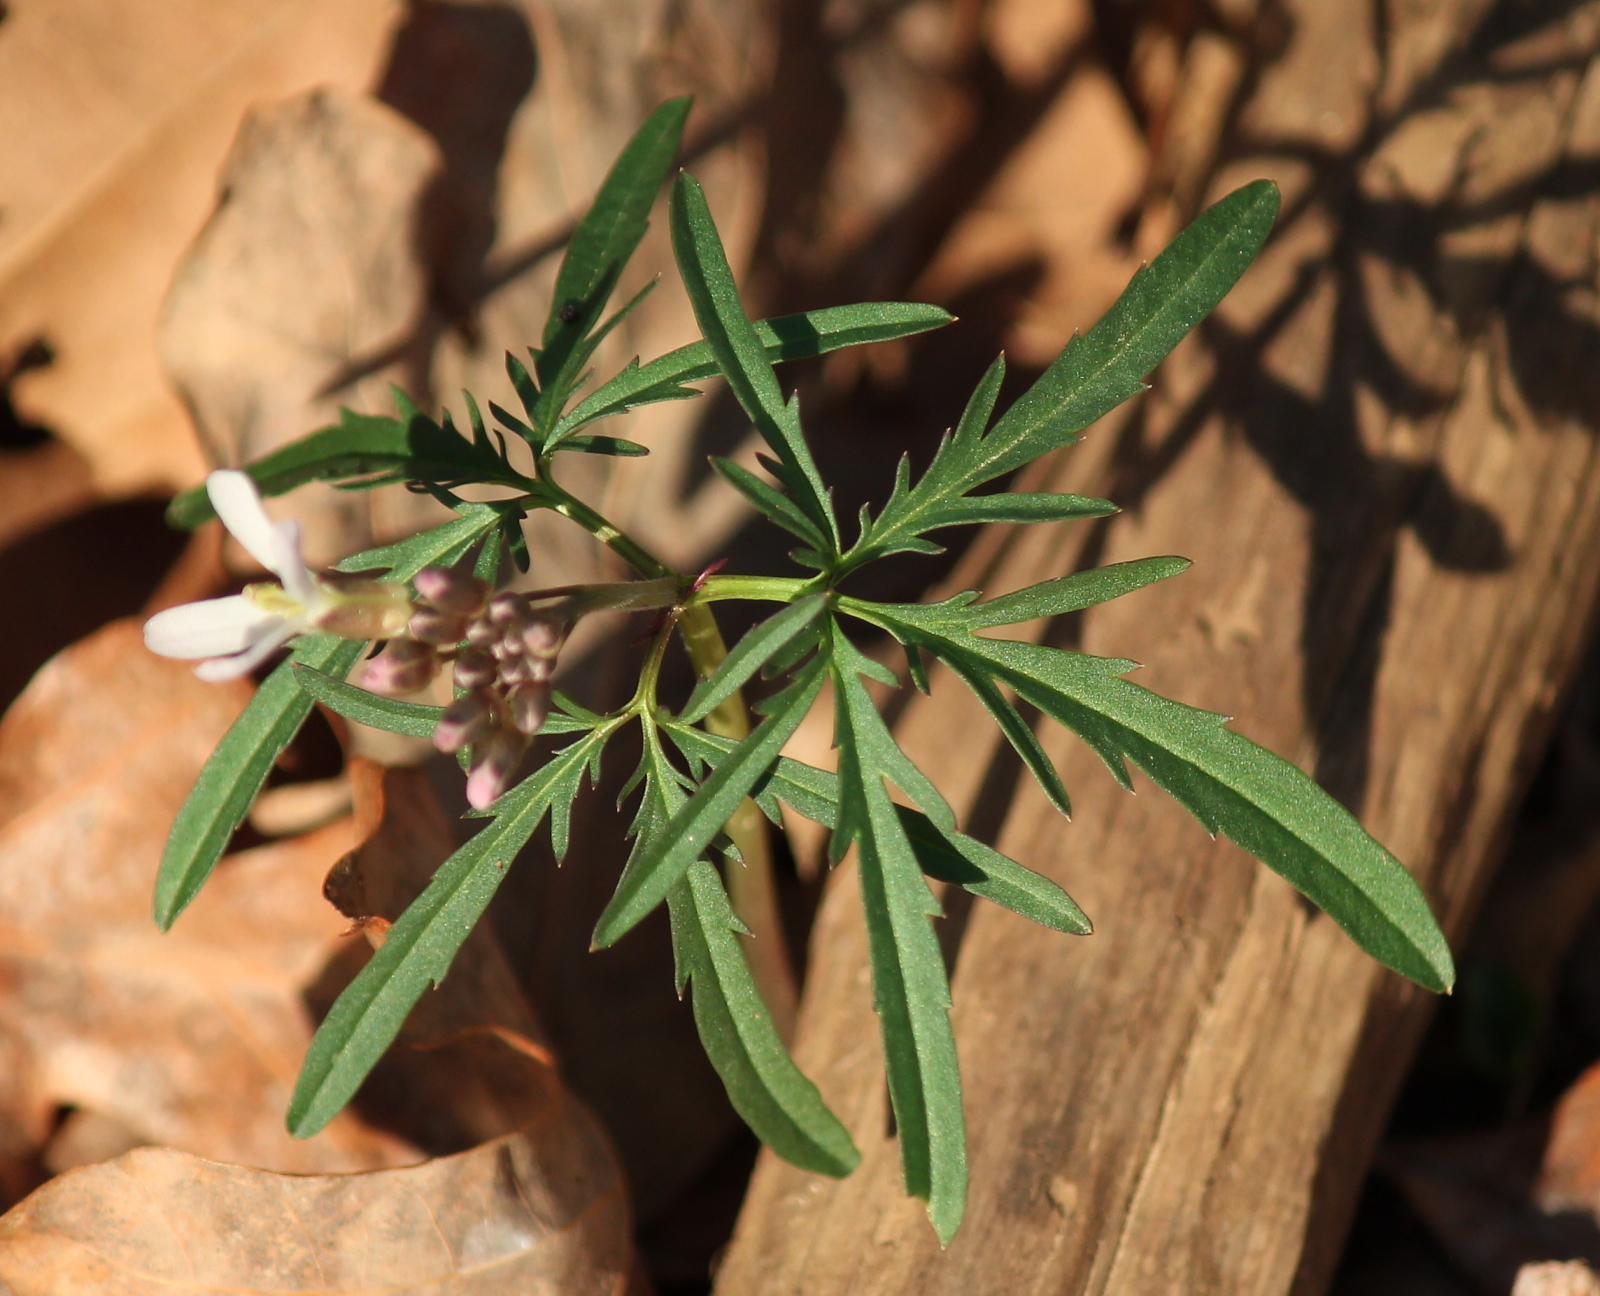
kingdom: Plantae
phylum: Tracheophyta
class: Magnoliopsida
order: Brassicales
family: Brassicaceae
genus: Cardamine
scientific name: Cardamine concatenata
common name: Cut-leaf toothcup
